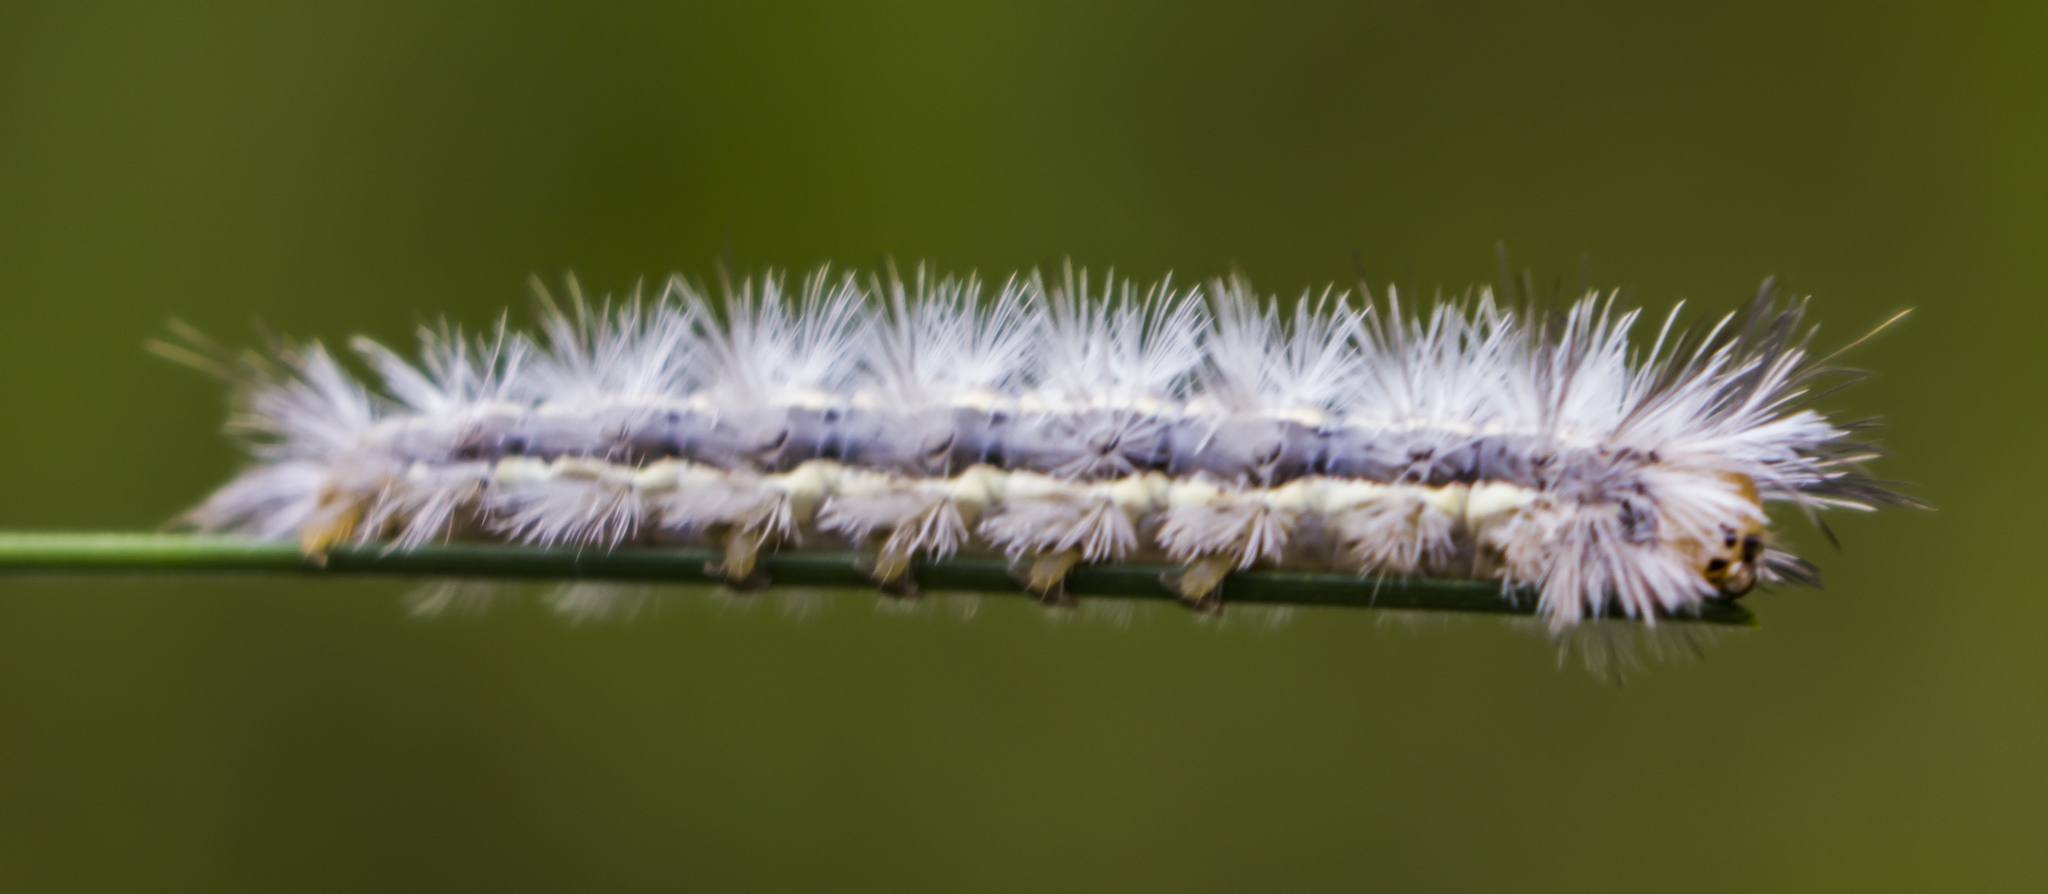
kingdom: Animalia
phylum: Arthropoda
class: Insecta
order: Lepidoptera
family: Erebidae
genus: Cisseps
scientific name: Cisseps fulvicollis
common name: Yellow-collared scape moth
